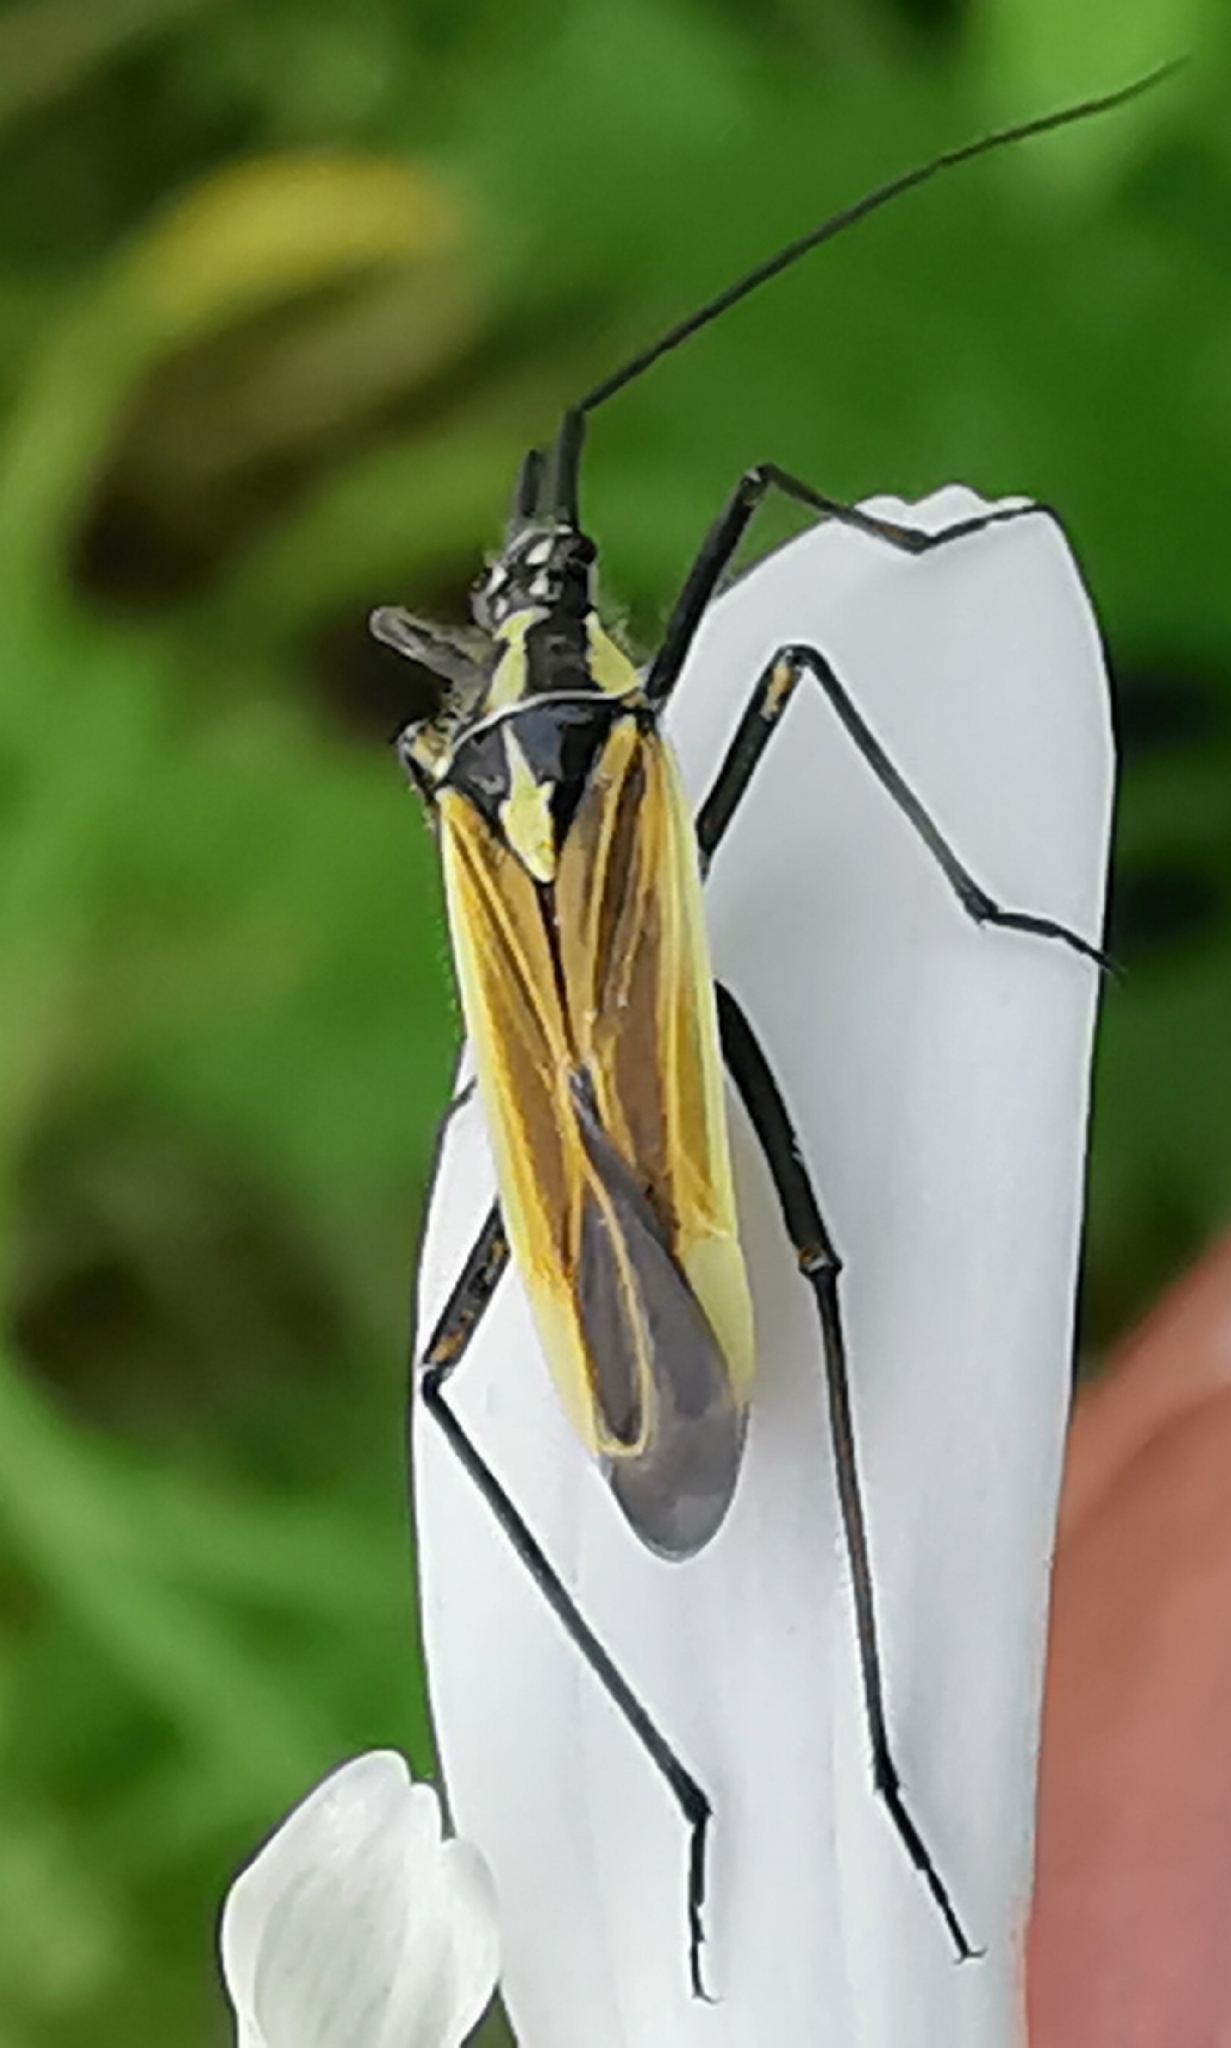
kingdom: Animalia
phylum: Arthropoda
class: Insecta
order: Hemiptera
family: Miridae
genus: Leptopterna
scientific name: Leptopterna dolabrata
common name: Meadow plant bug
